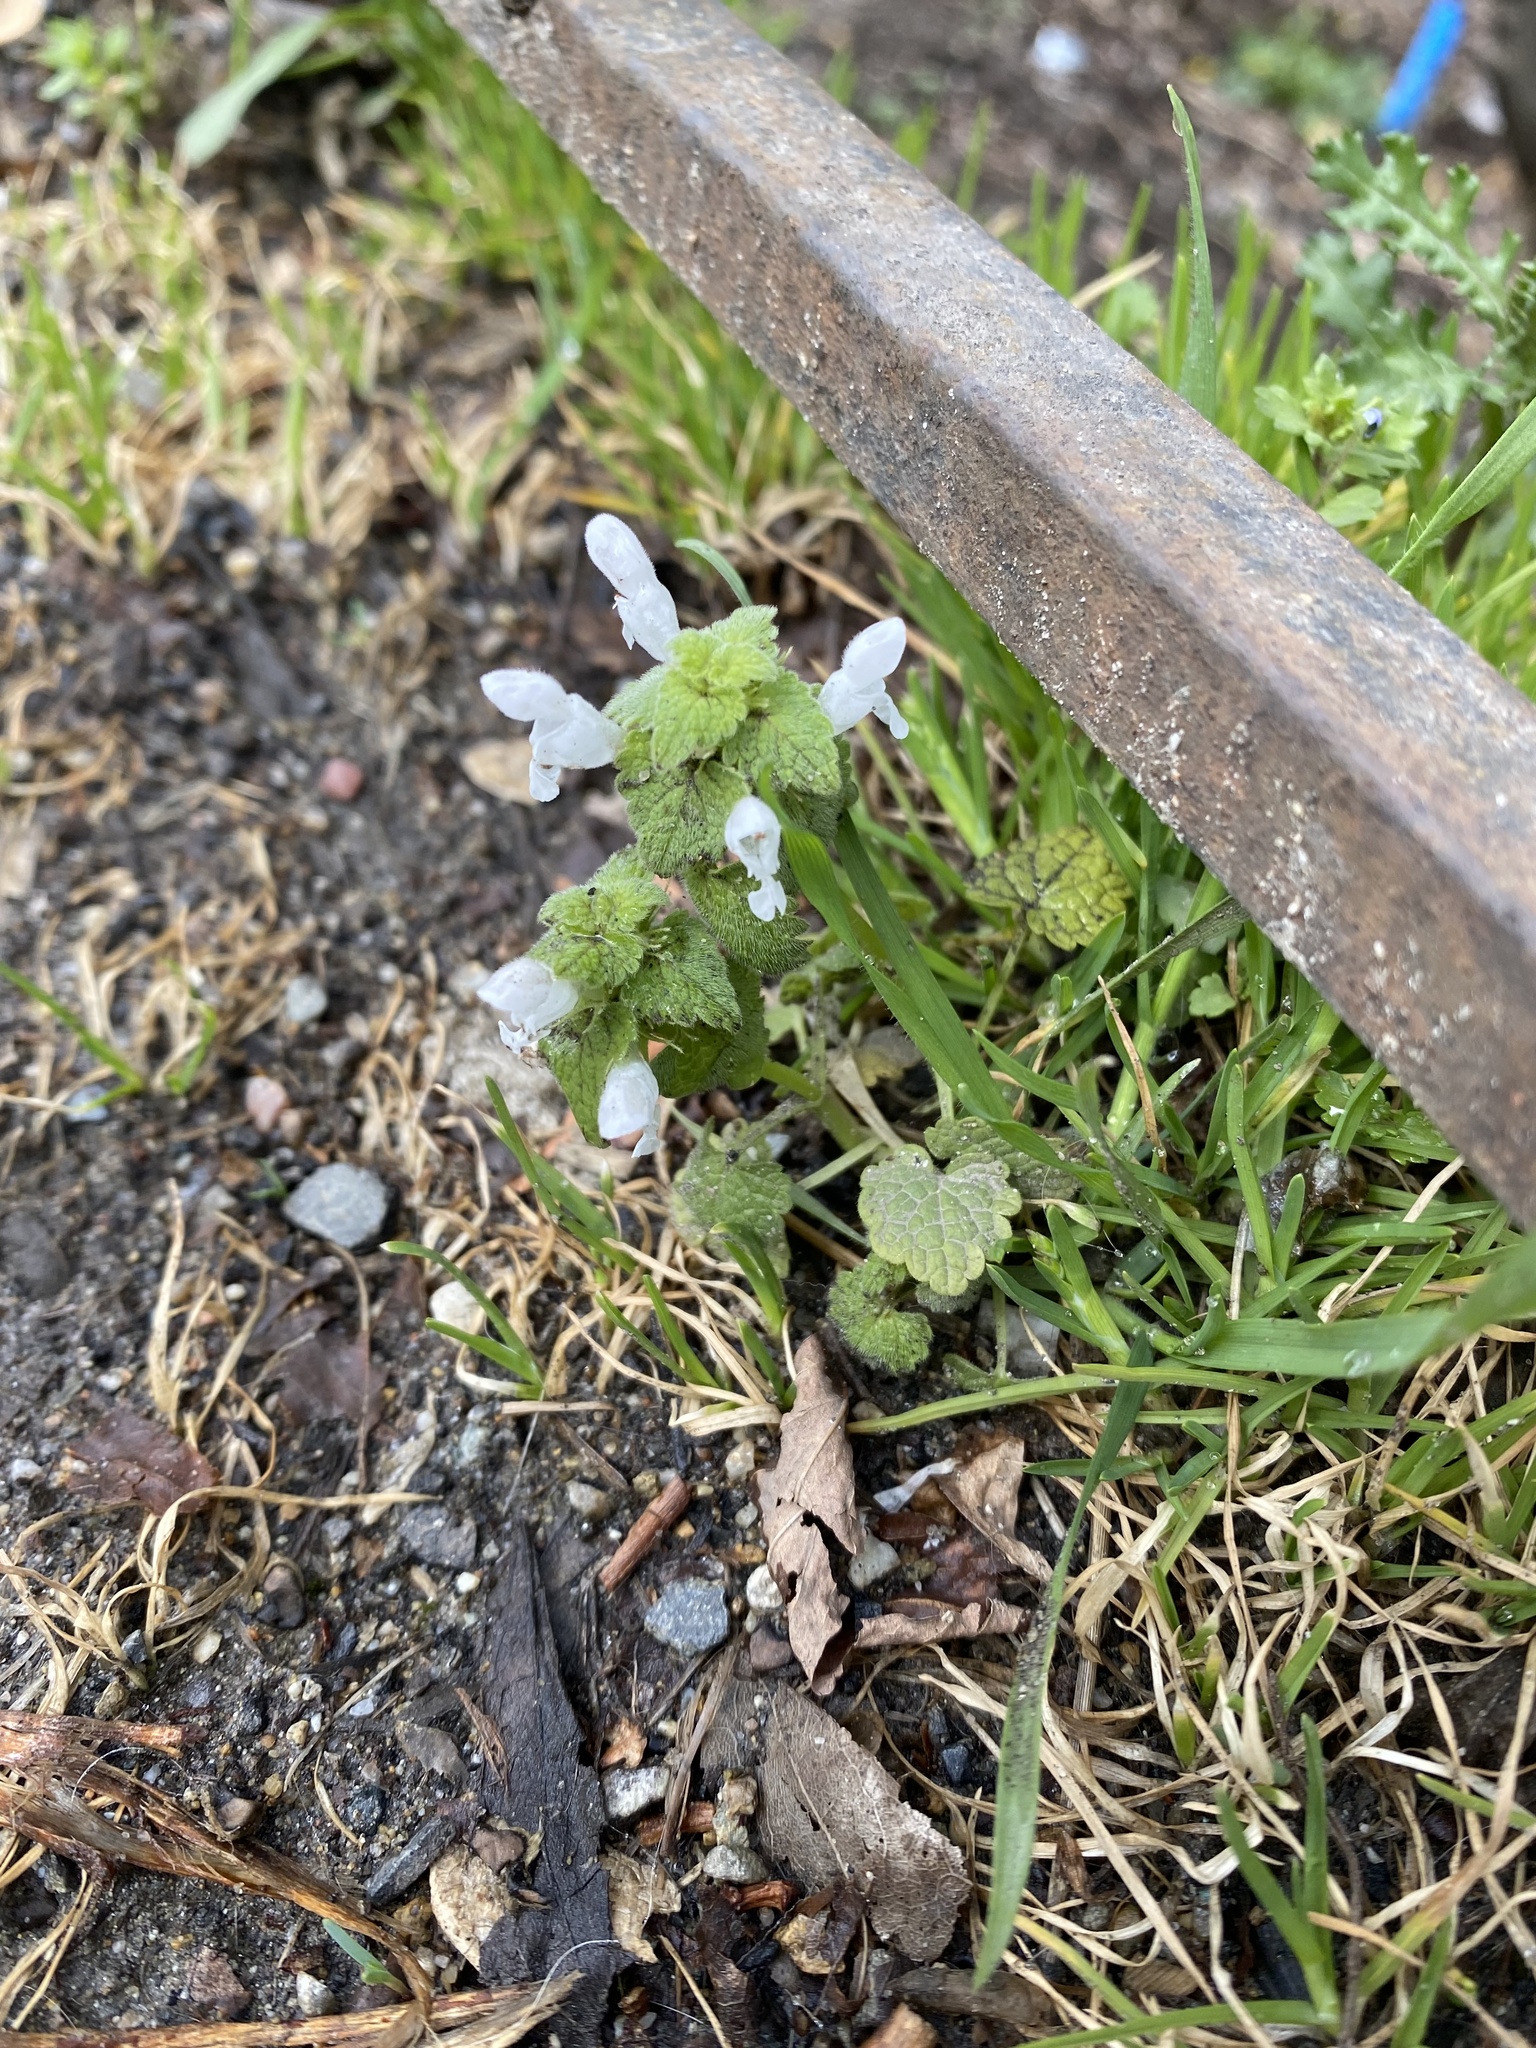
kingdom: Plantae
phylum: Tracheophyta
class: Magnoliopsida
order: Lamiales
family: Lamiaceae
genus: Lamium
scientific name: Lamium purpureum
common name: Red dead-nettle
